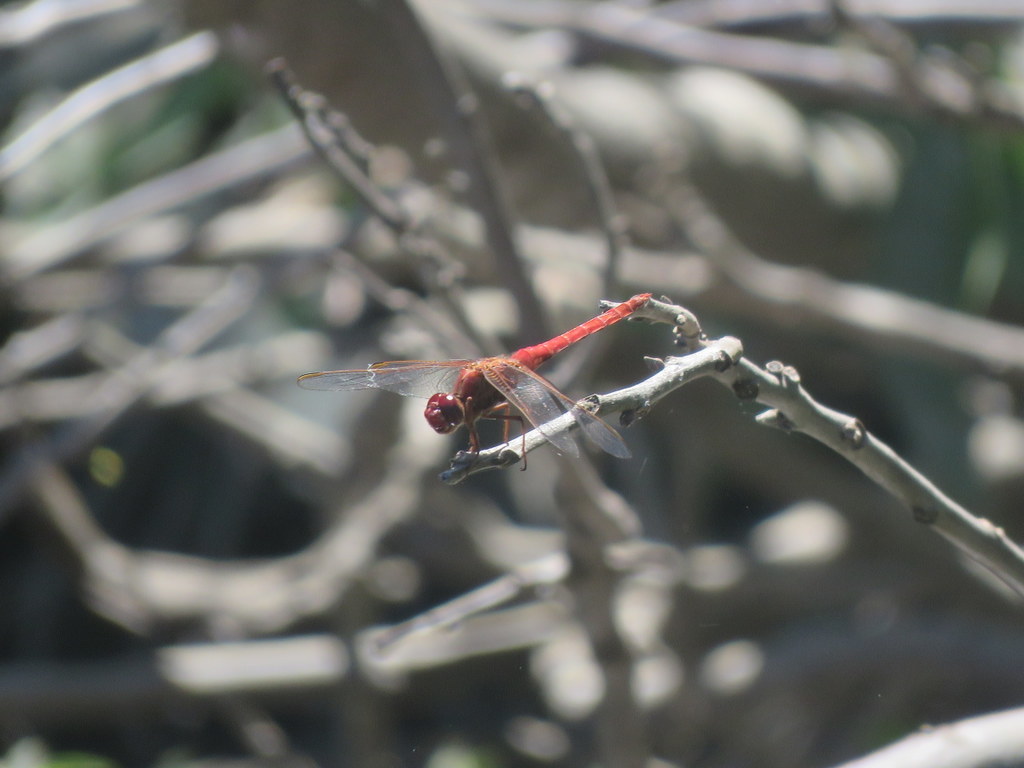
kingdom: Animalia
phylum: Arthropoda
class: Insecta
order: Odonata
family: Libellulidae
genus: Orthemis
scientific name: Orthemis nodiplaga
